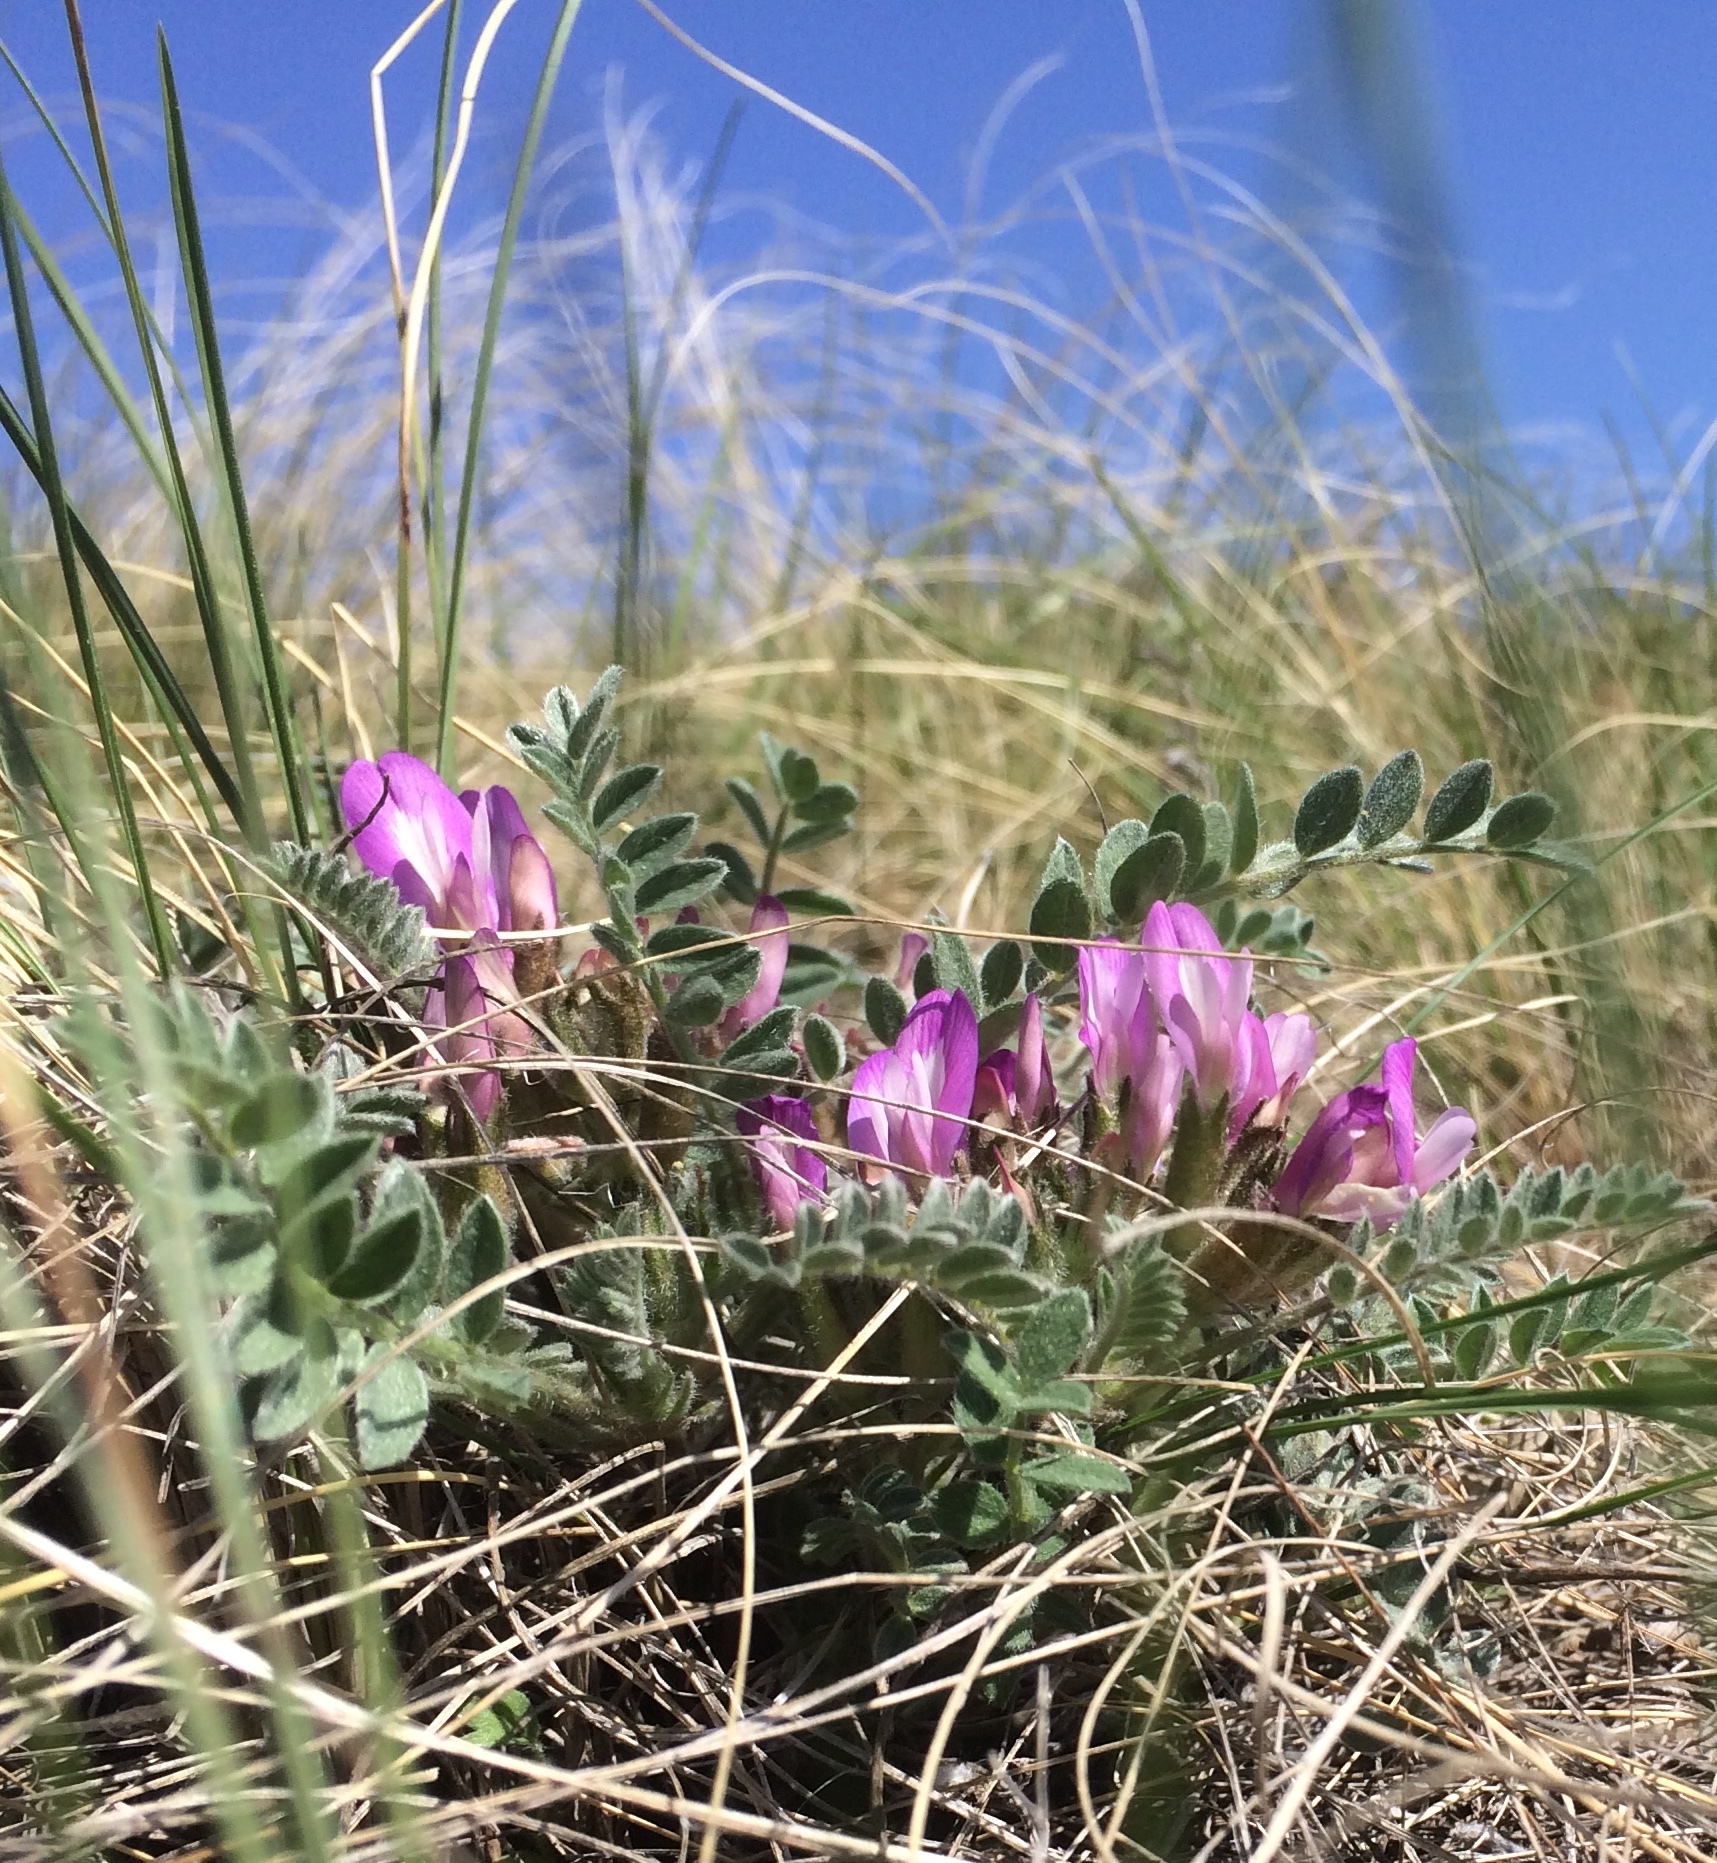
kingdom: Plantae
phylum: Tracheophyta
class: Magnoliopsida
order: Fabales
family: Fabaceae
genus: Astragalus
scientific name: Astragalus testiculatus
